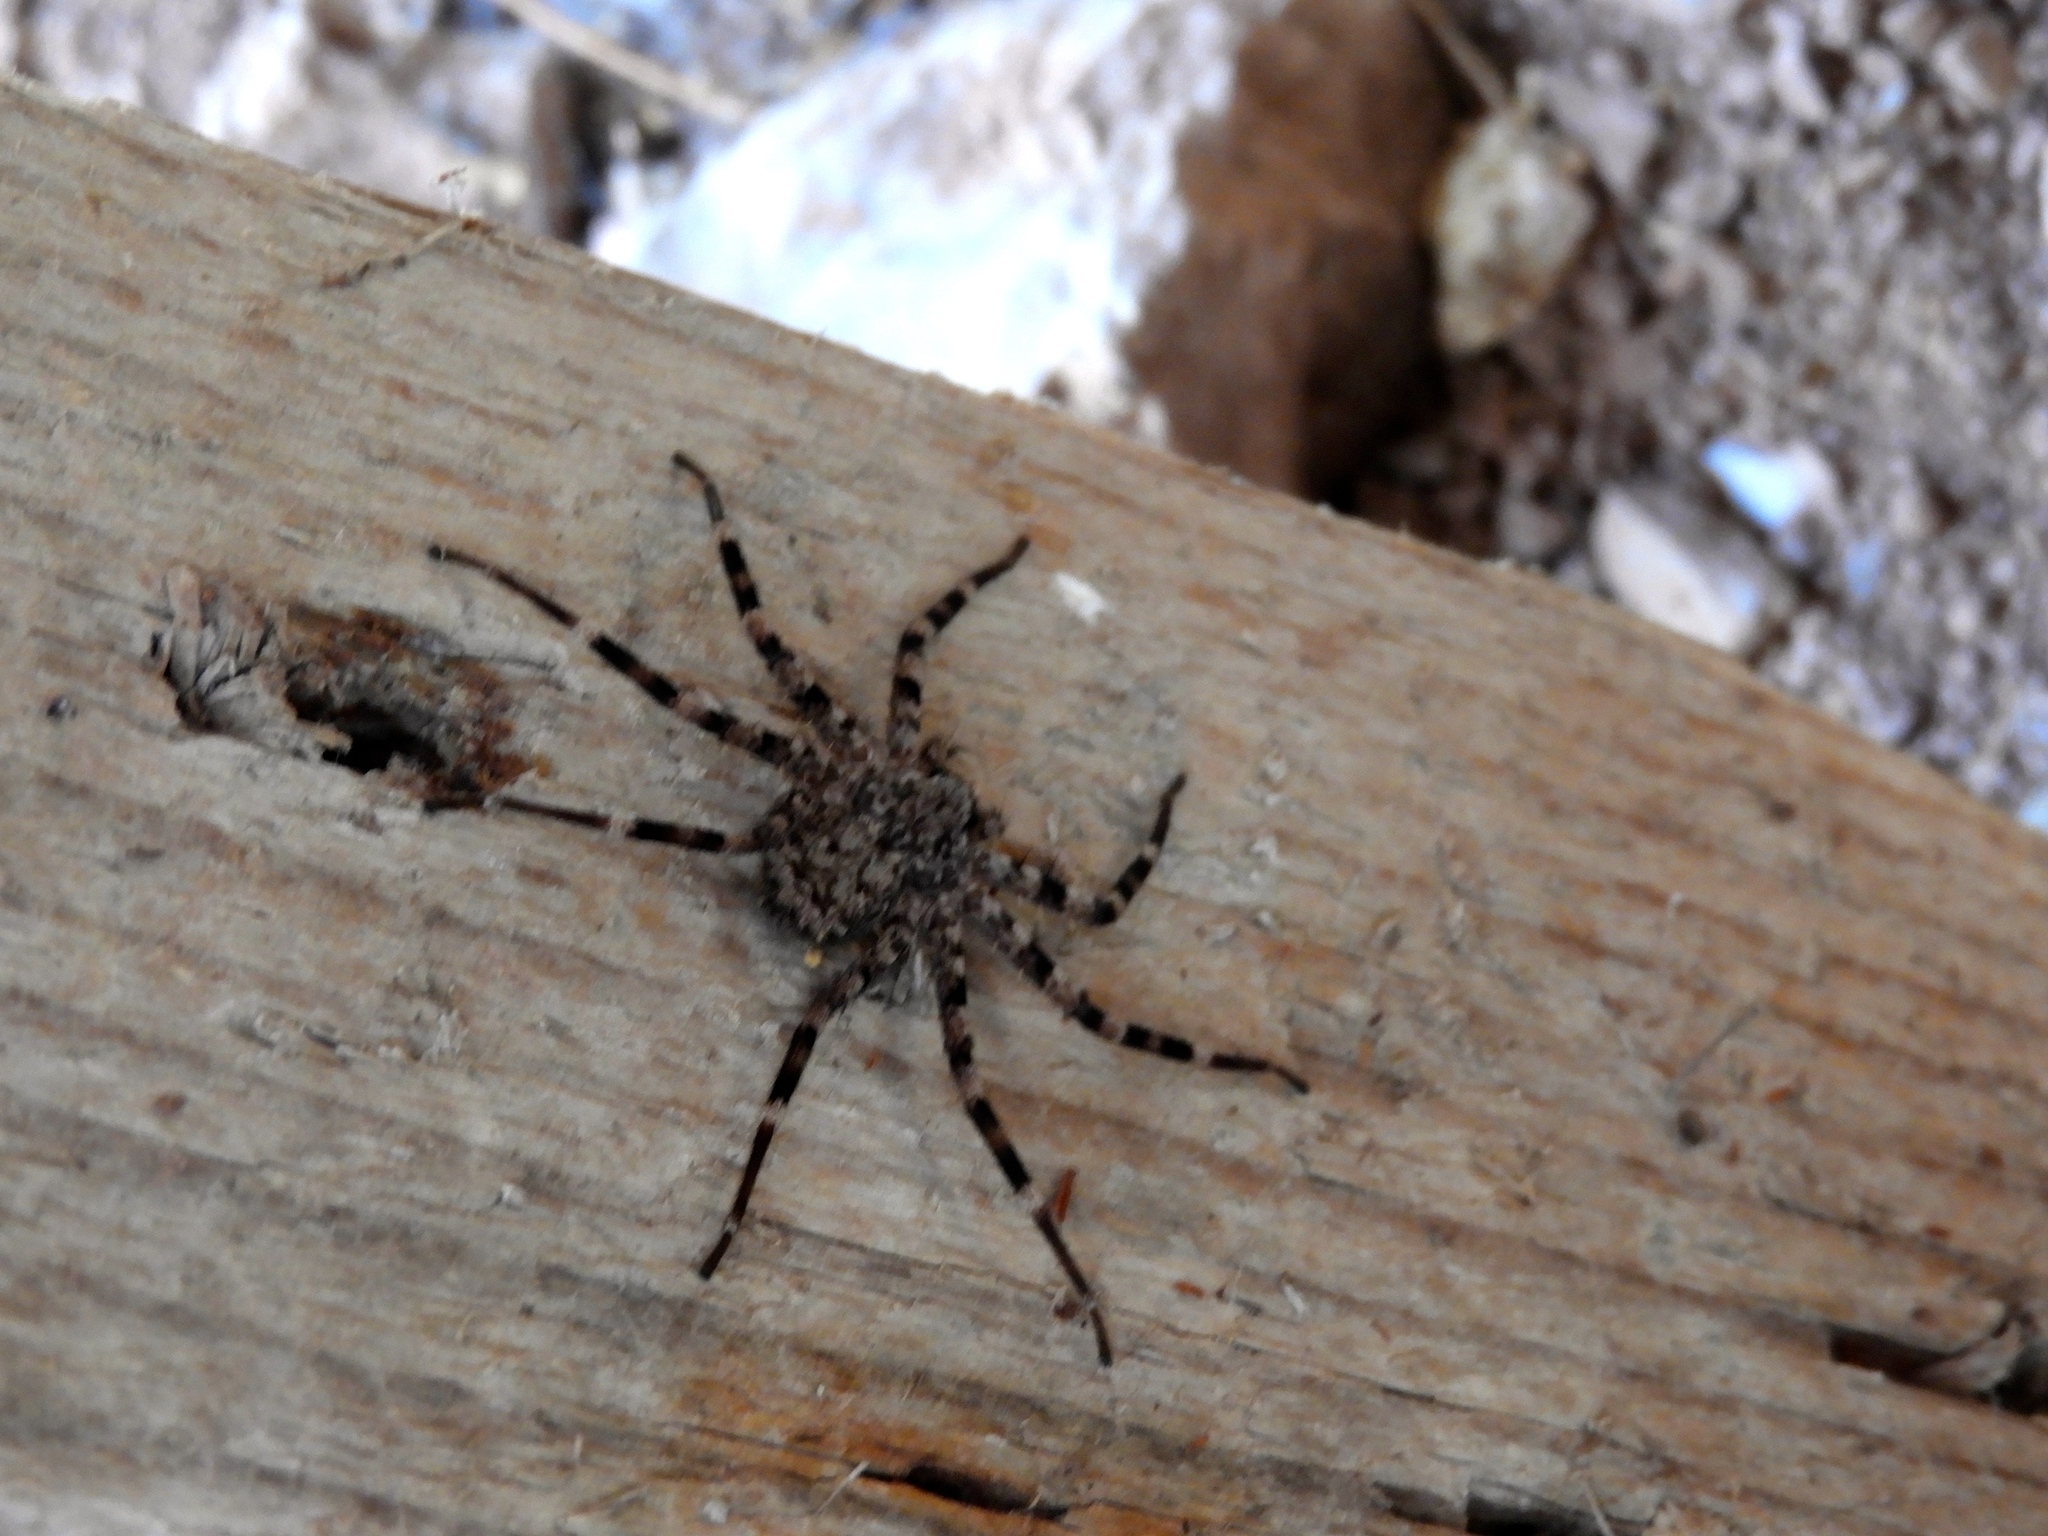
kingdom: Animalia
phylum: Arthropoda
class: Arachnida
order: Araneae
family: Selenopidae
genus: Selenops
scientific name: Selenops
